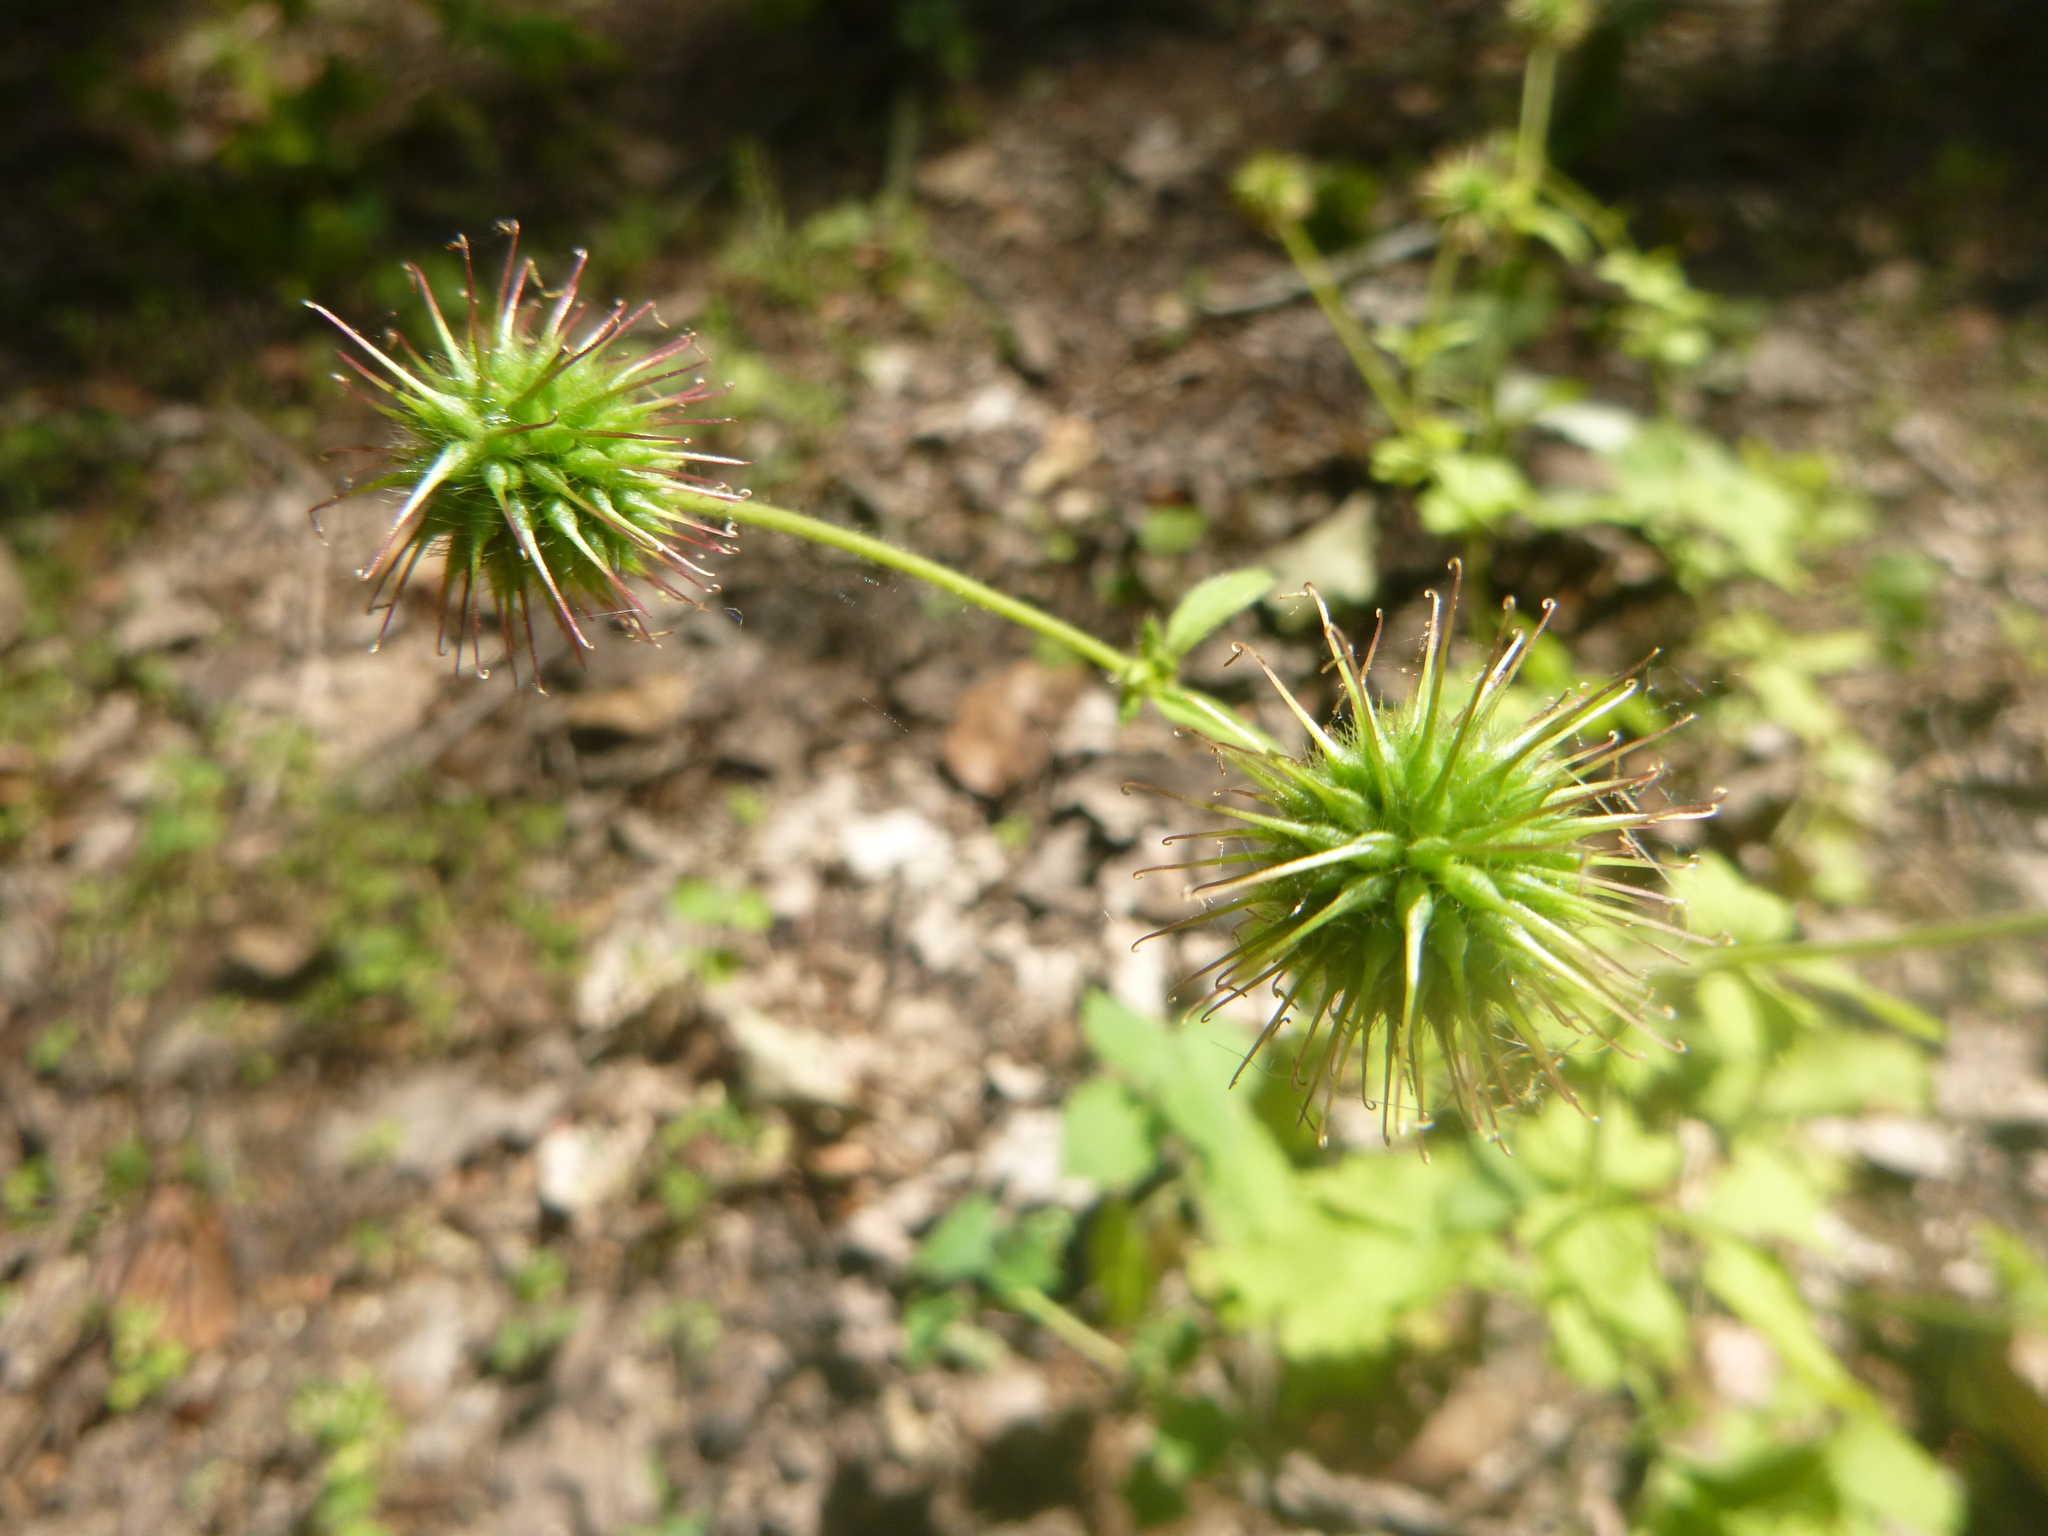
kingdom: Plantae
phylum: Tracheophyta
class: Magnoliopsida
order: Rosales
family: Rosaceae
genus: Geum
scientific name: Geum urbanum
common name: Wood avens
